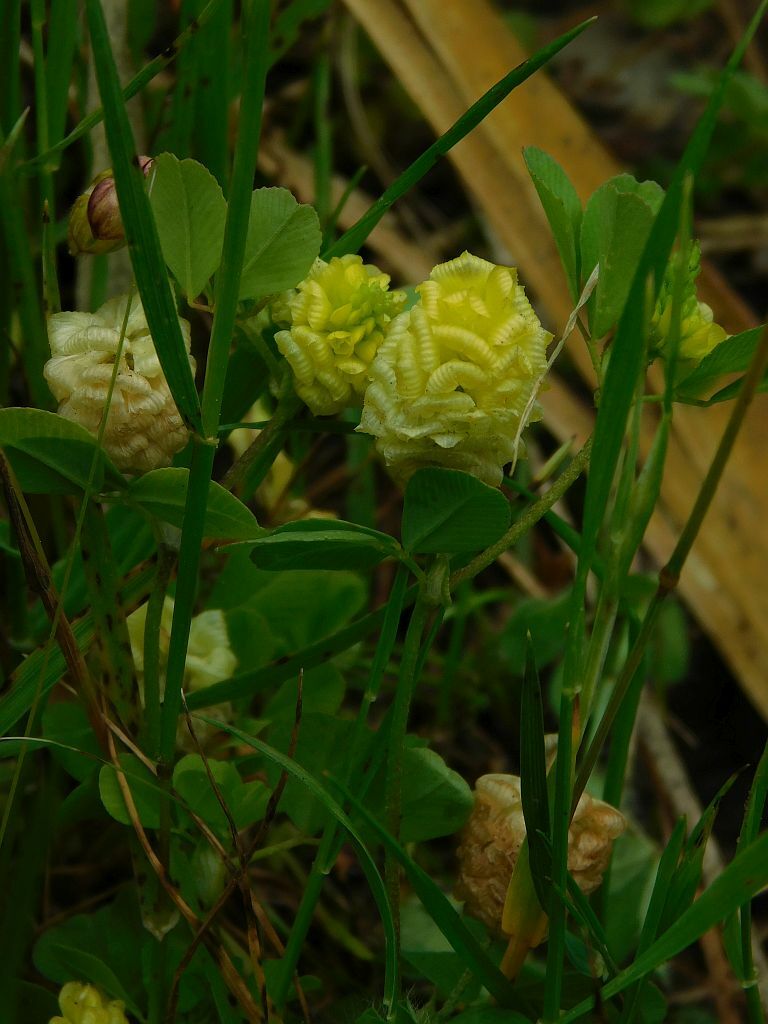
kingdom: Plantae
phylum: Tracheophyta
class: Magnoliopsida
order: Fabales
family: Fabaceae
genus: Trifolium
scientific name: Trifolium campestre
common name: Field clover
